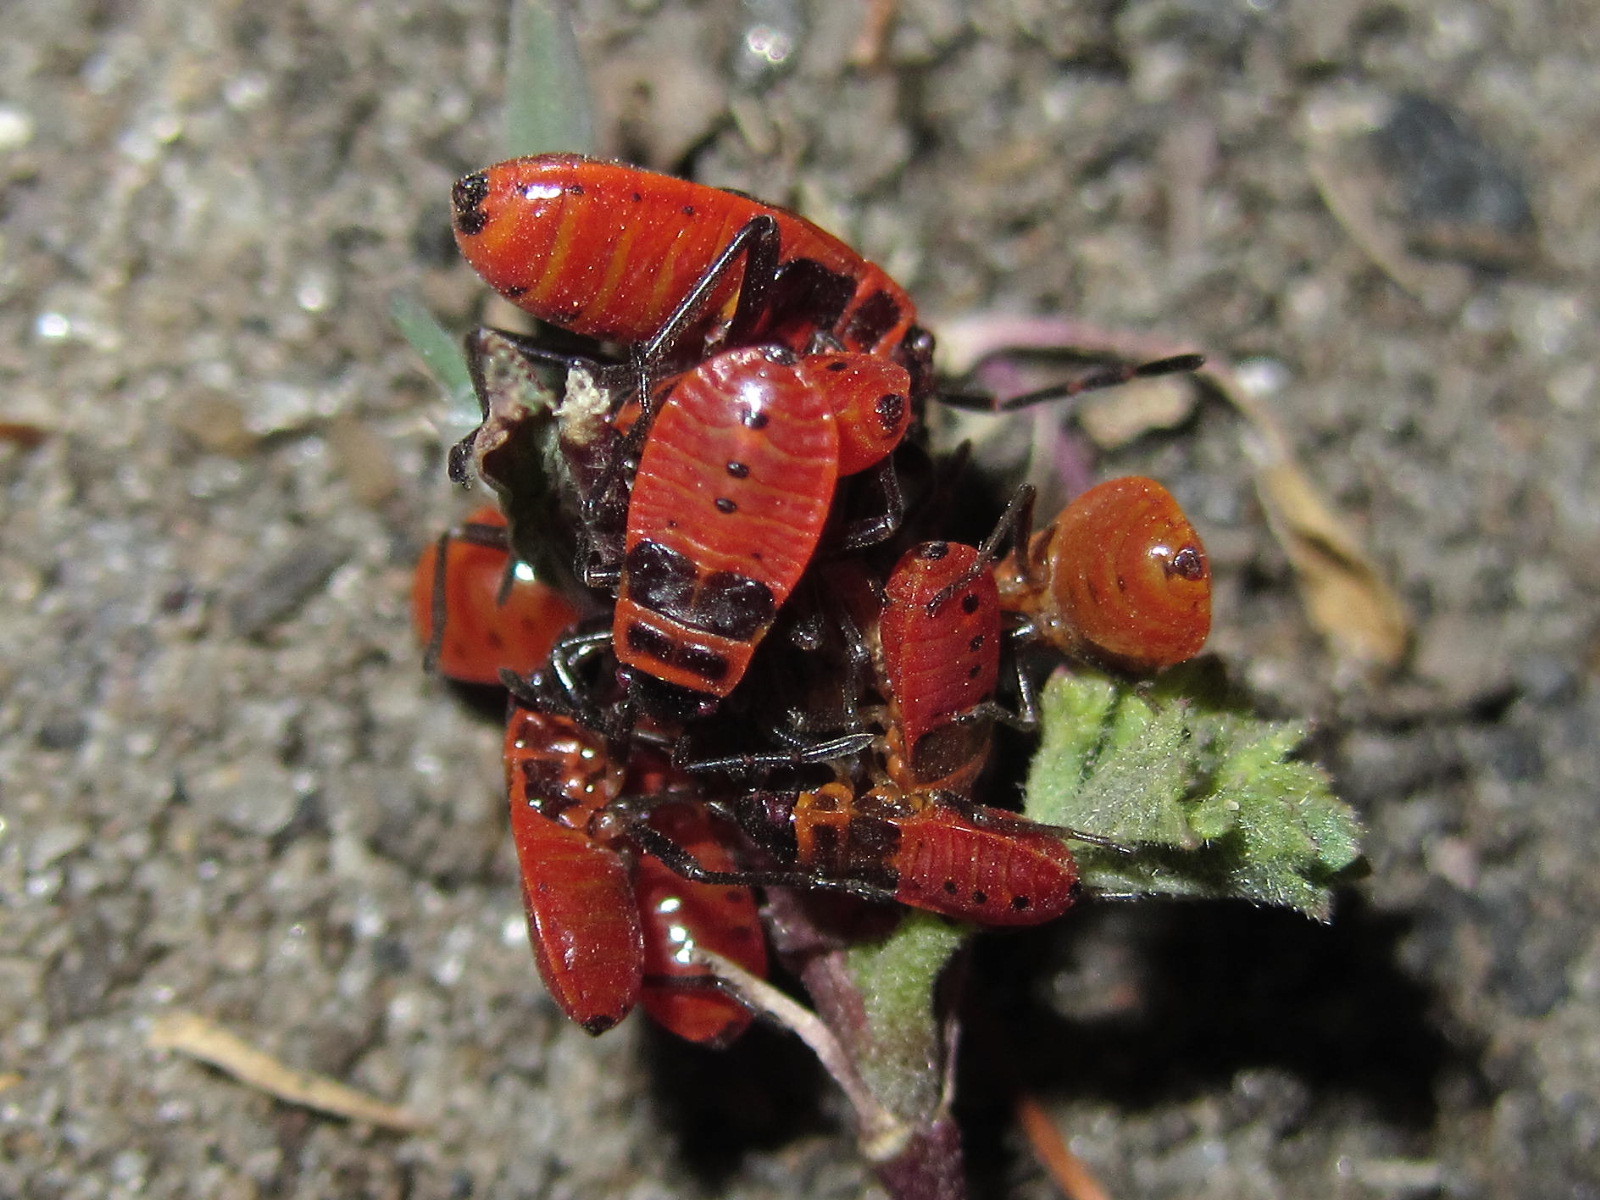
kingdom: Animalia
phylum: Arthropoda
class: Insecta
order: Hemiptera
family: Pyrrhocoridae
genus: Pyrrhocoris
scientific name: Pyrrhocoris apterus
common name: Firebug
